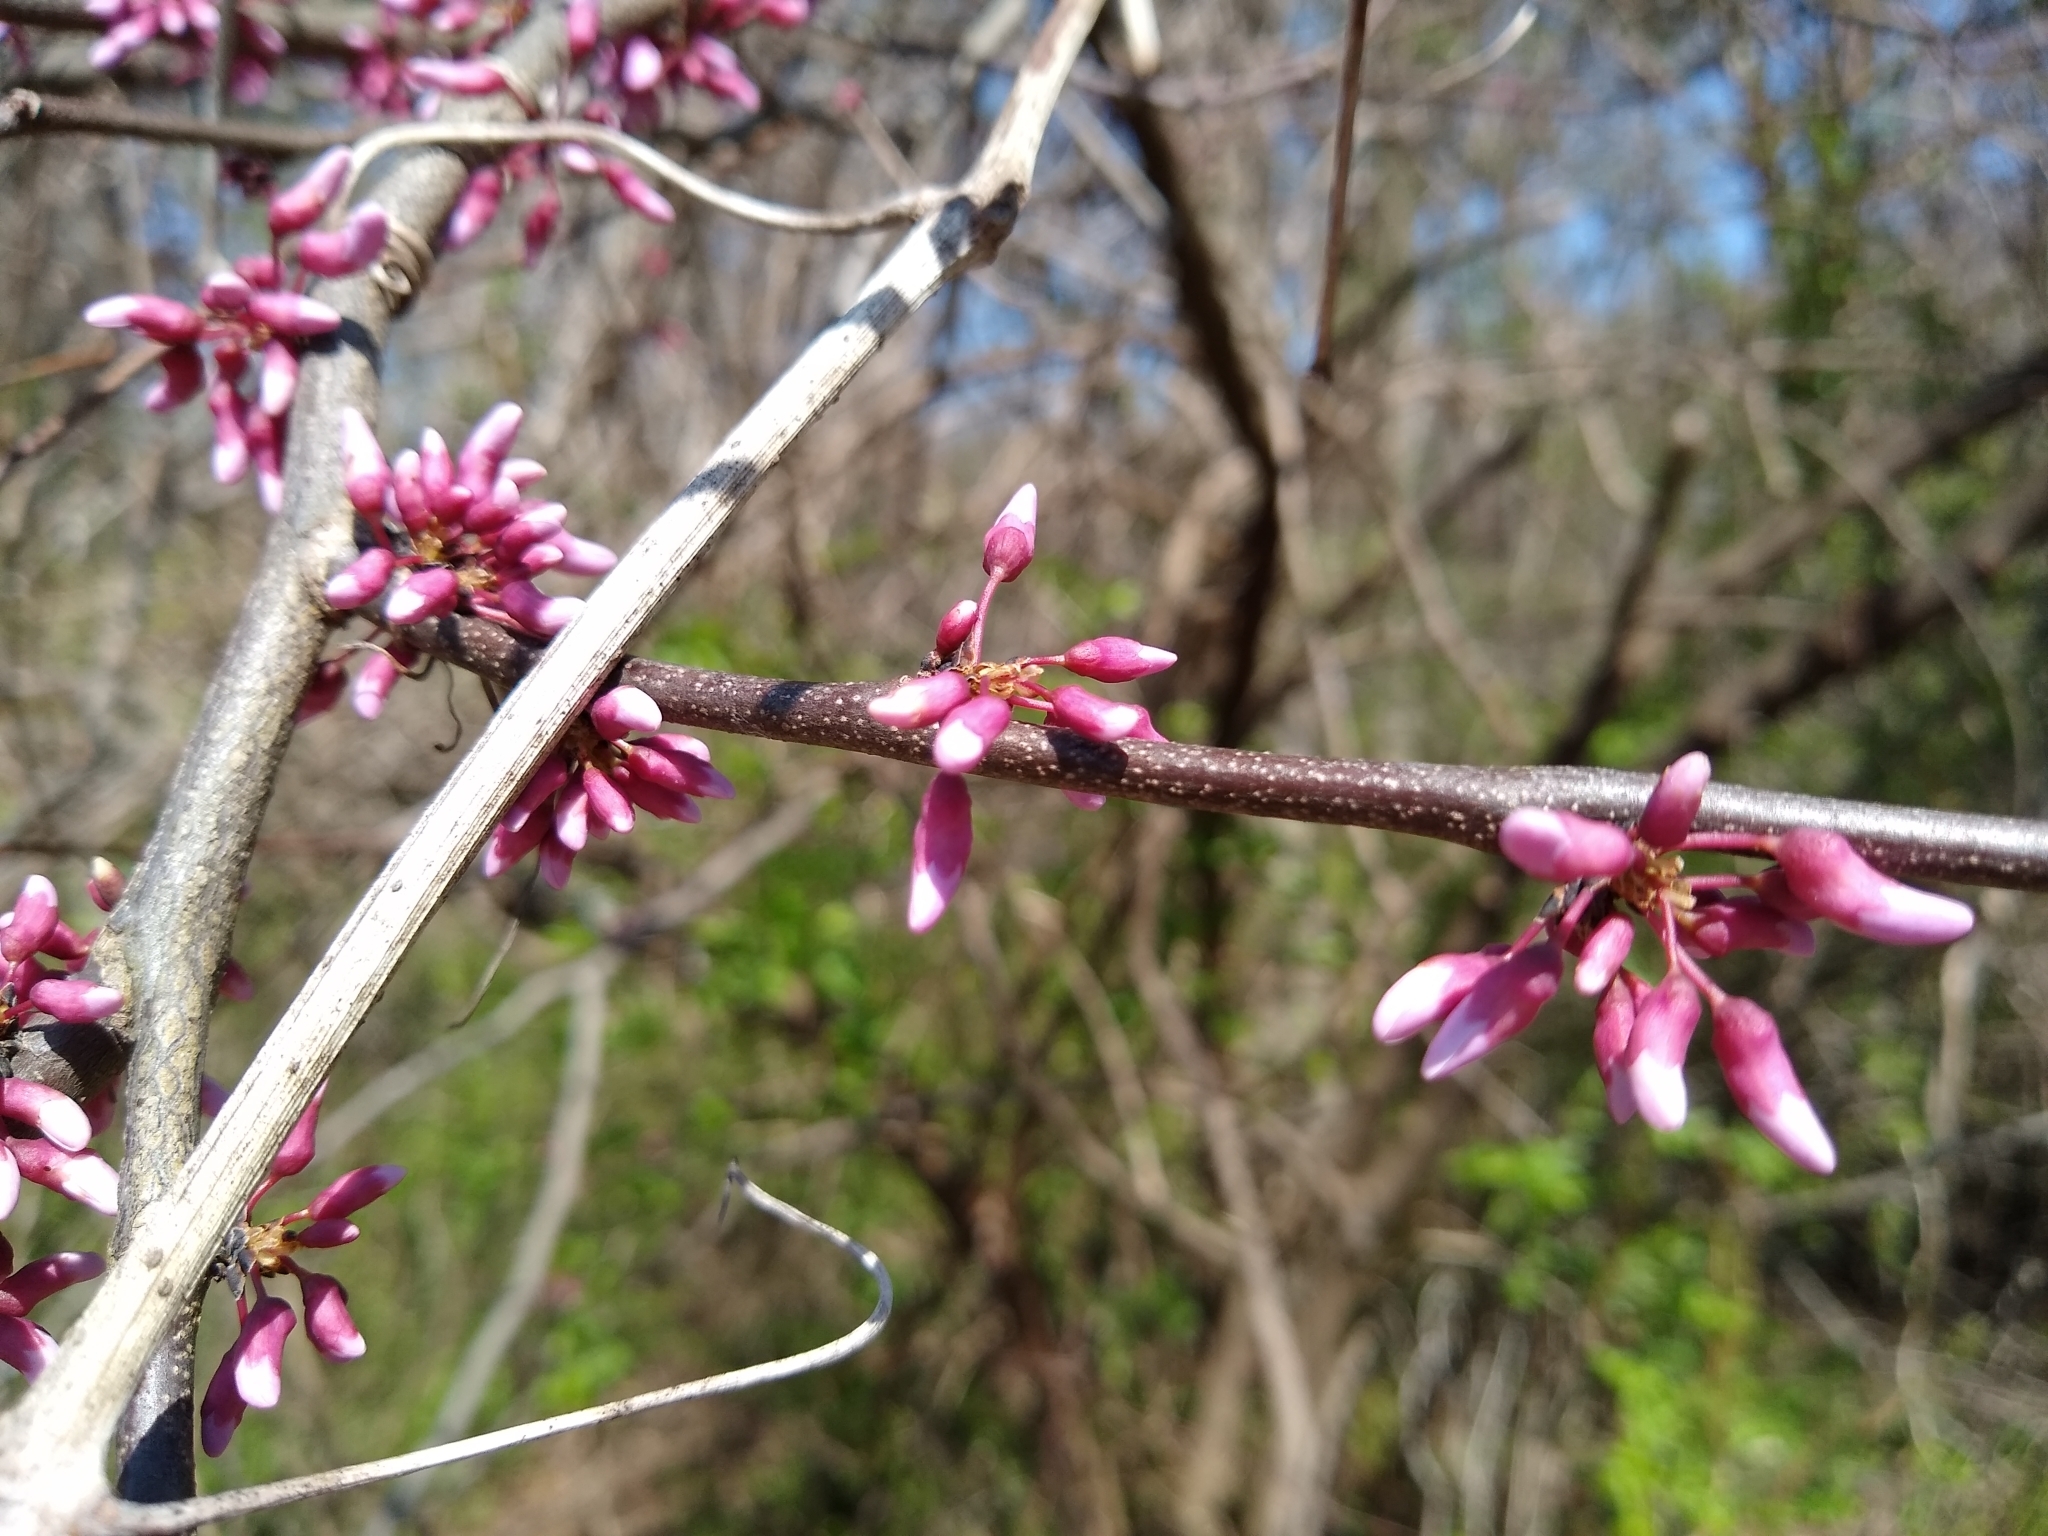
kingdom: Plantae
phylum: Tracheophyta
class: Magnoliopsida
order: Fabales
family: Fabaceae
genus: Cercis
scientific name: Cercis canadensis
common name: Eastern redbud
